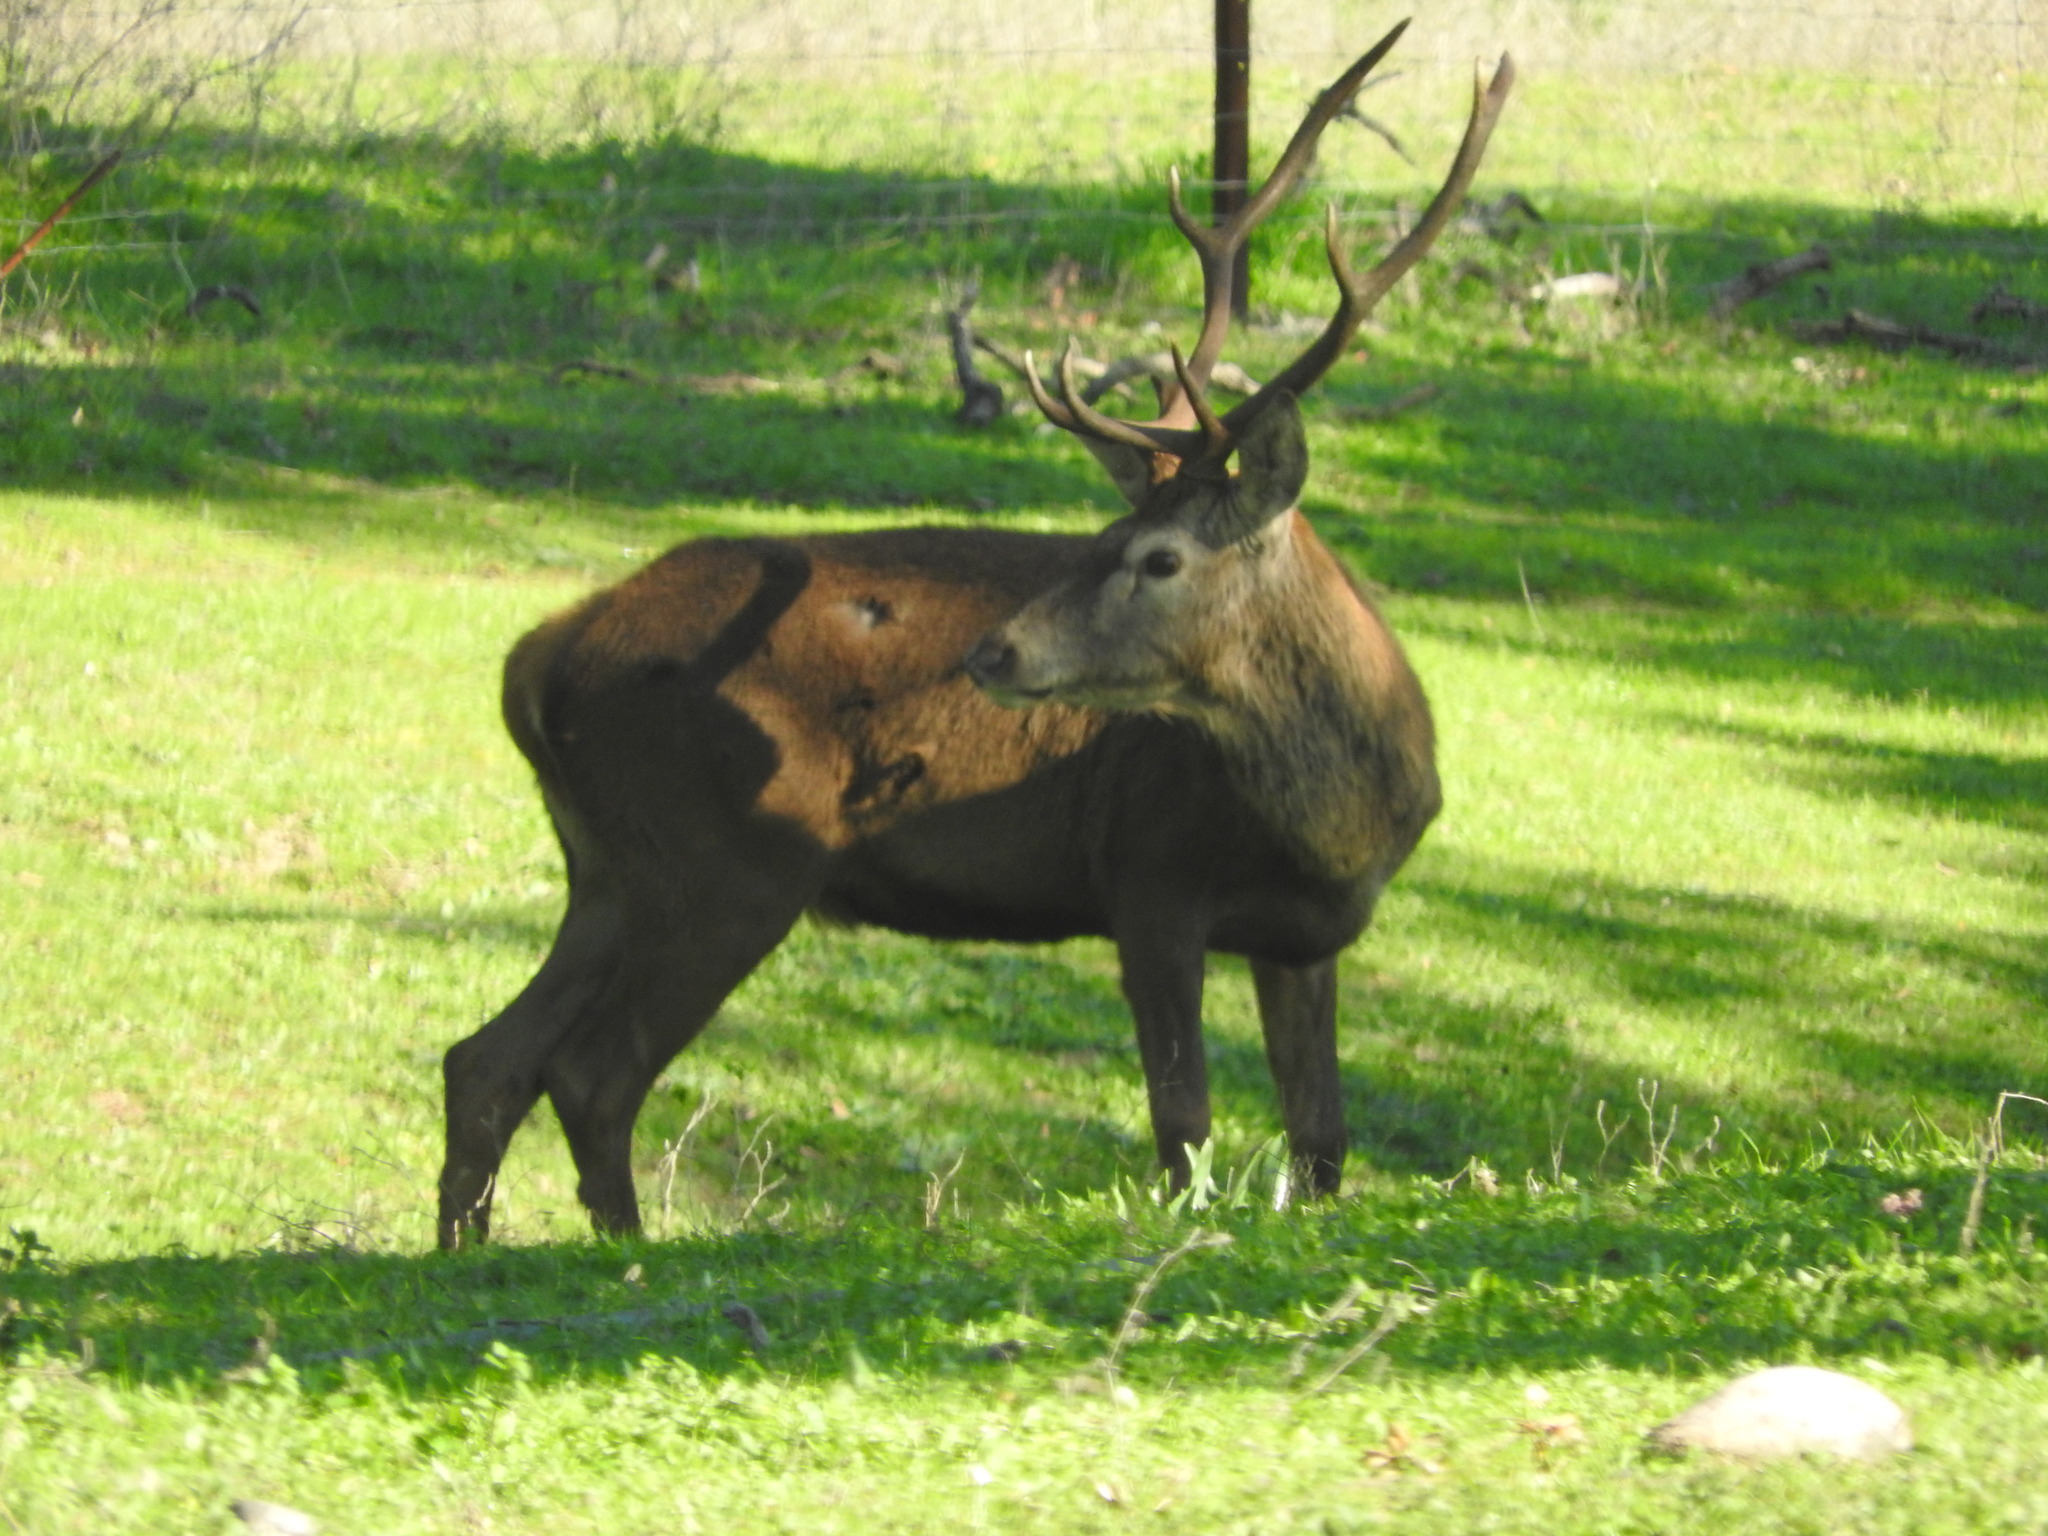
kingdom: Animalia
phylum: Chordata
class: Mammalia
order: Artiodactyla
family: Cervidae
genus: Cervus
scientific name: Cervus elaphus
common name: Red deer
